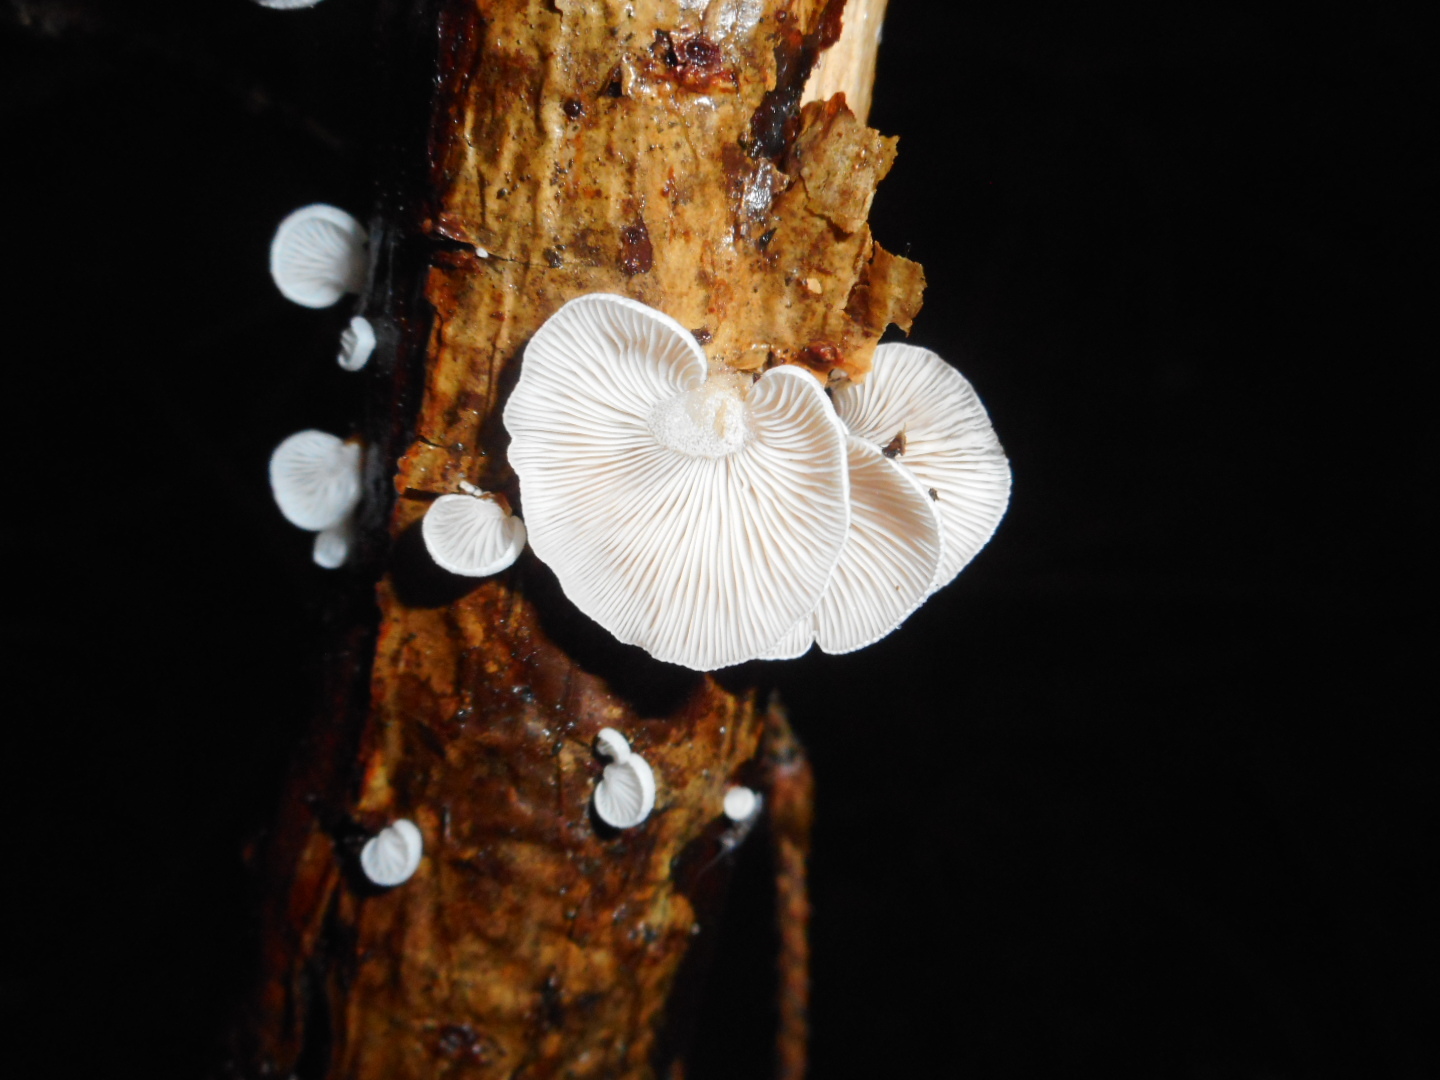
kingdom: Fungi
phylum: Basidiomycota
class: Agaricomycetes
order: Agaricales
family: Mycenaceae
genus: Panellus
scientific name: Panellus mitis
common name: Elastic oysterling
